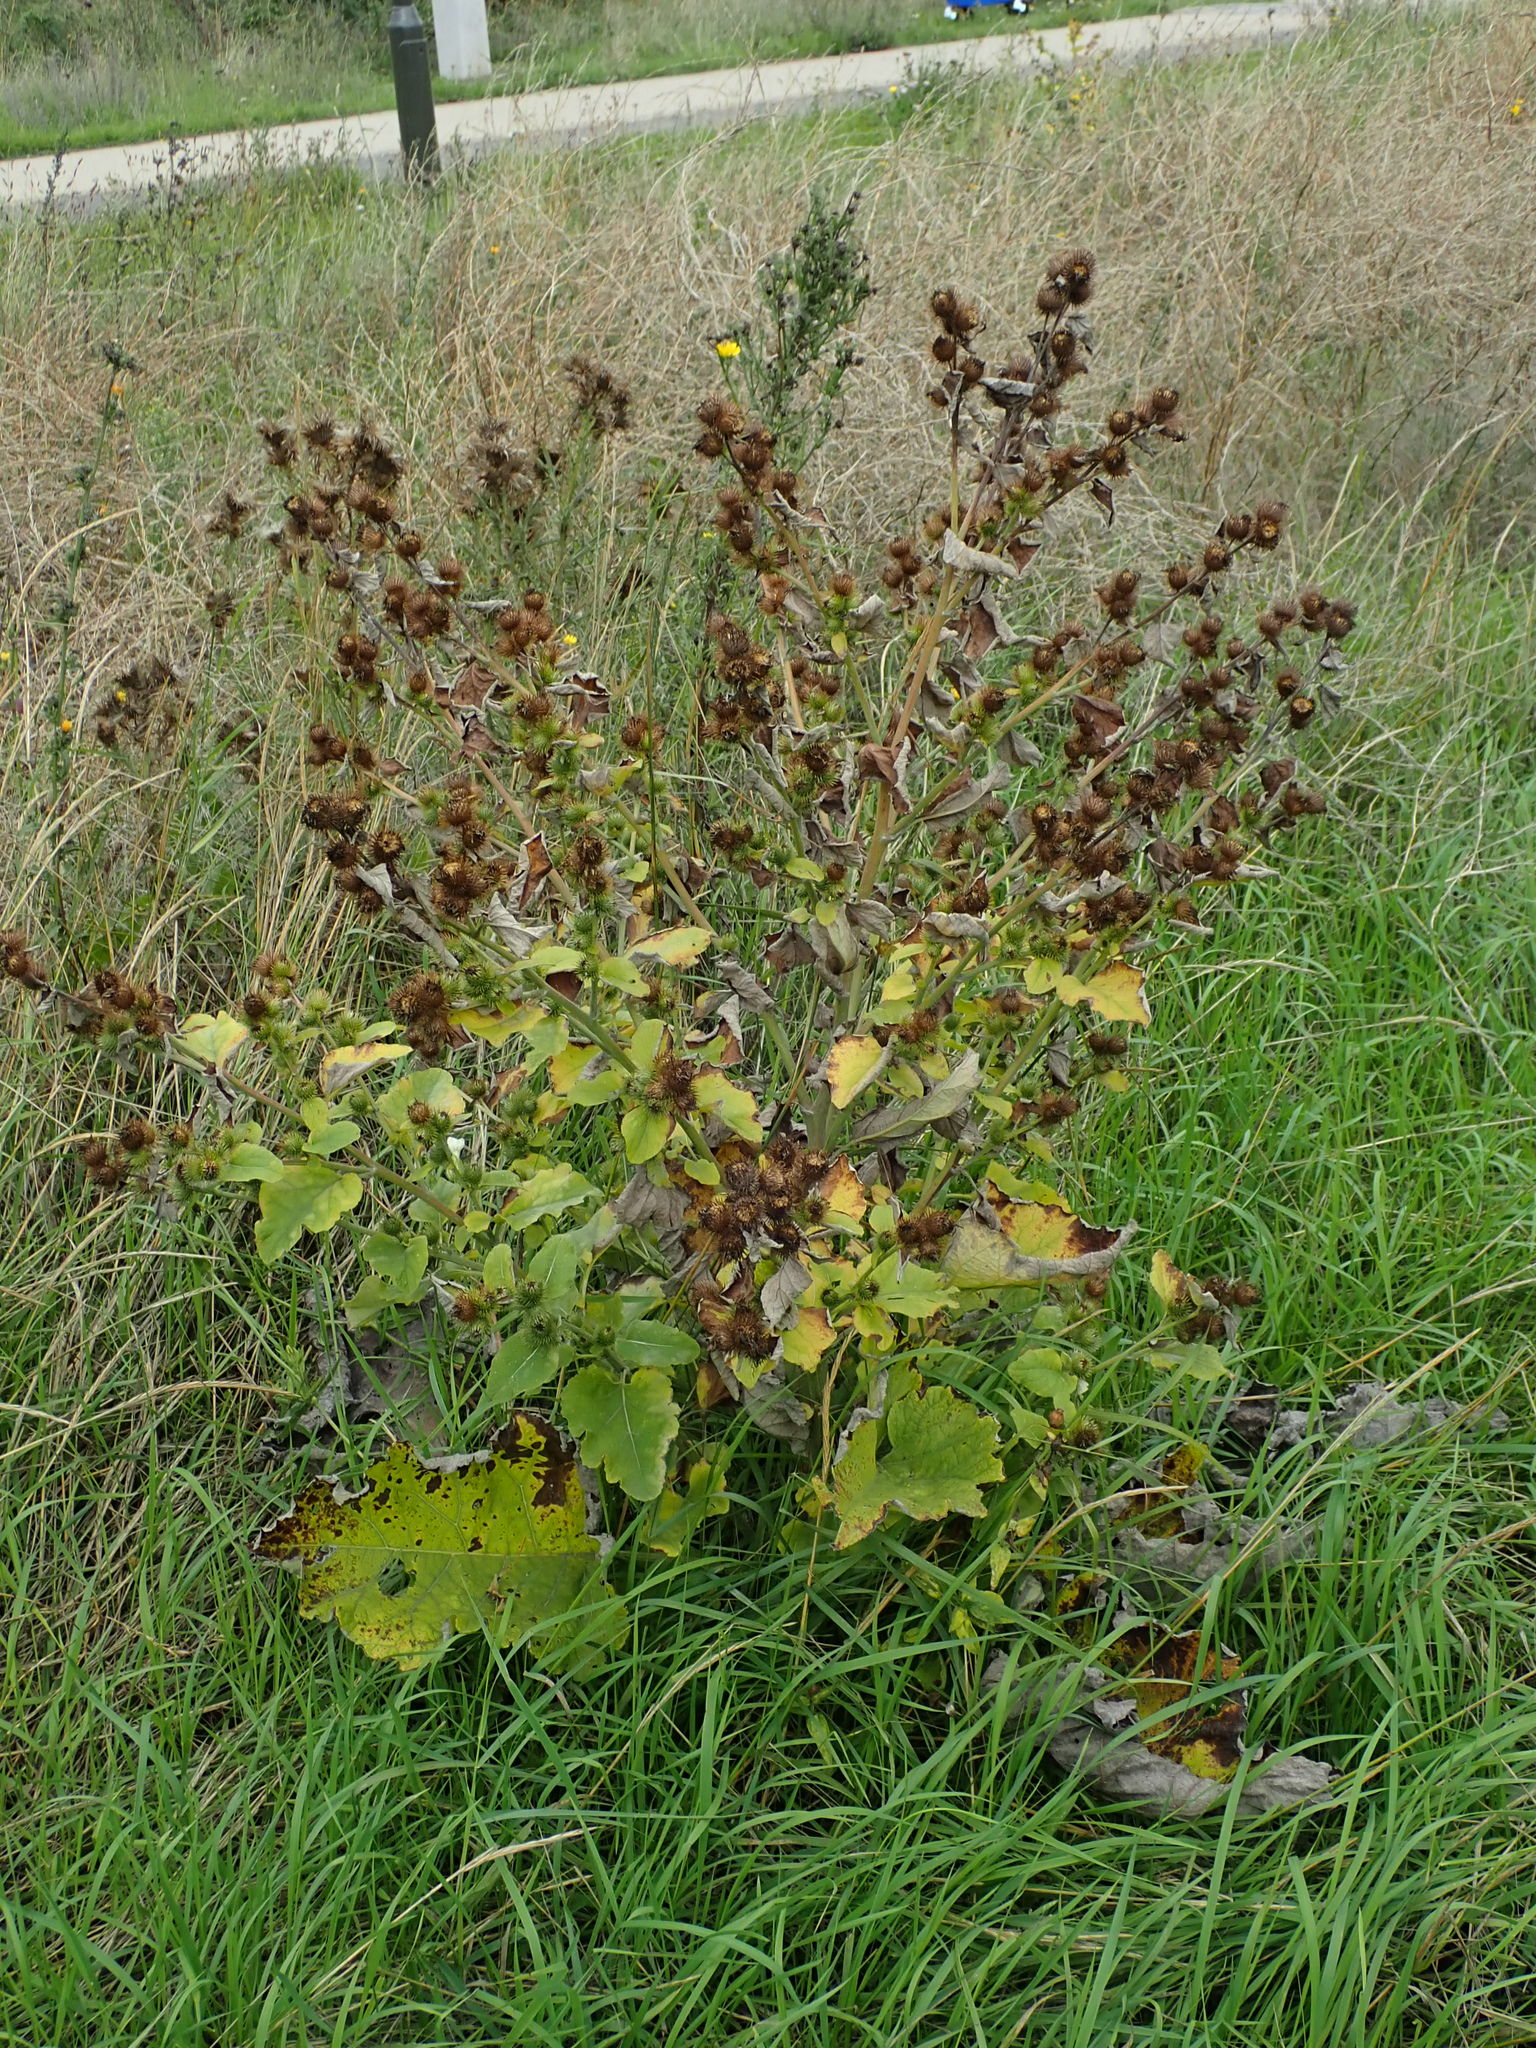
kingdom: Plantae
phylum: Tracheophyta
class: Magnoliopsida
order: Asterales
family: Asteraceae
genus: Arctium
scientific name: Arctium minus
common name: Lesser burdock
